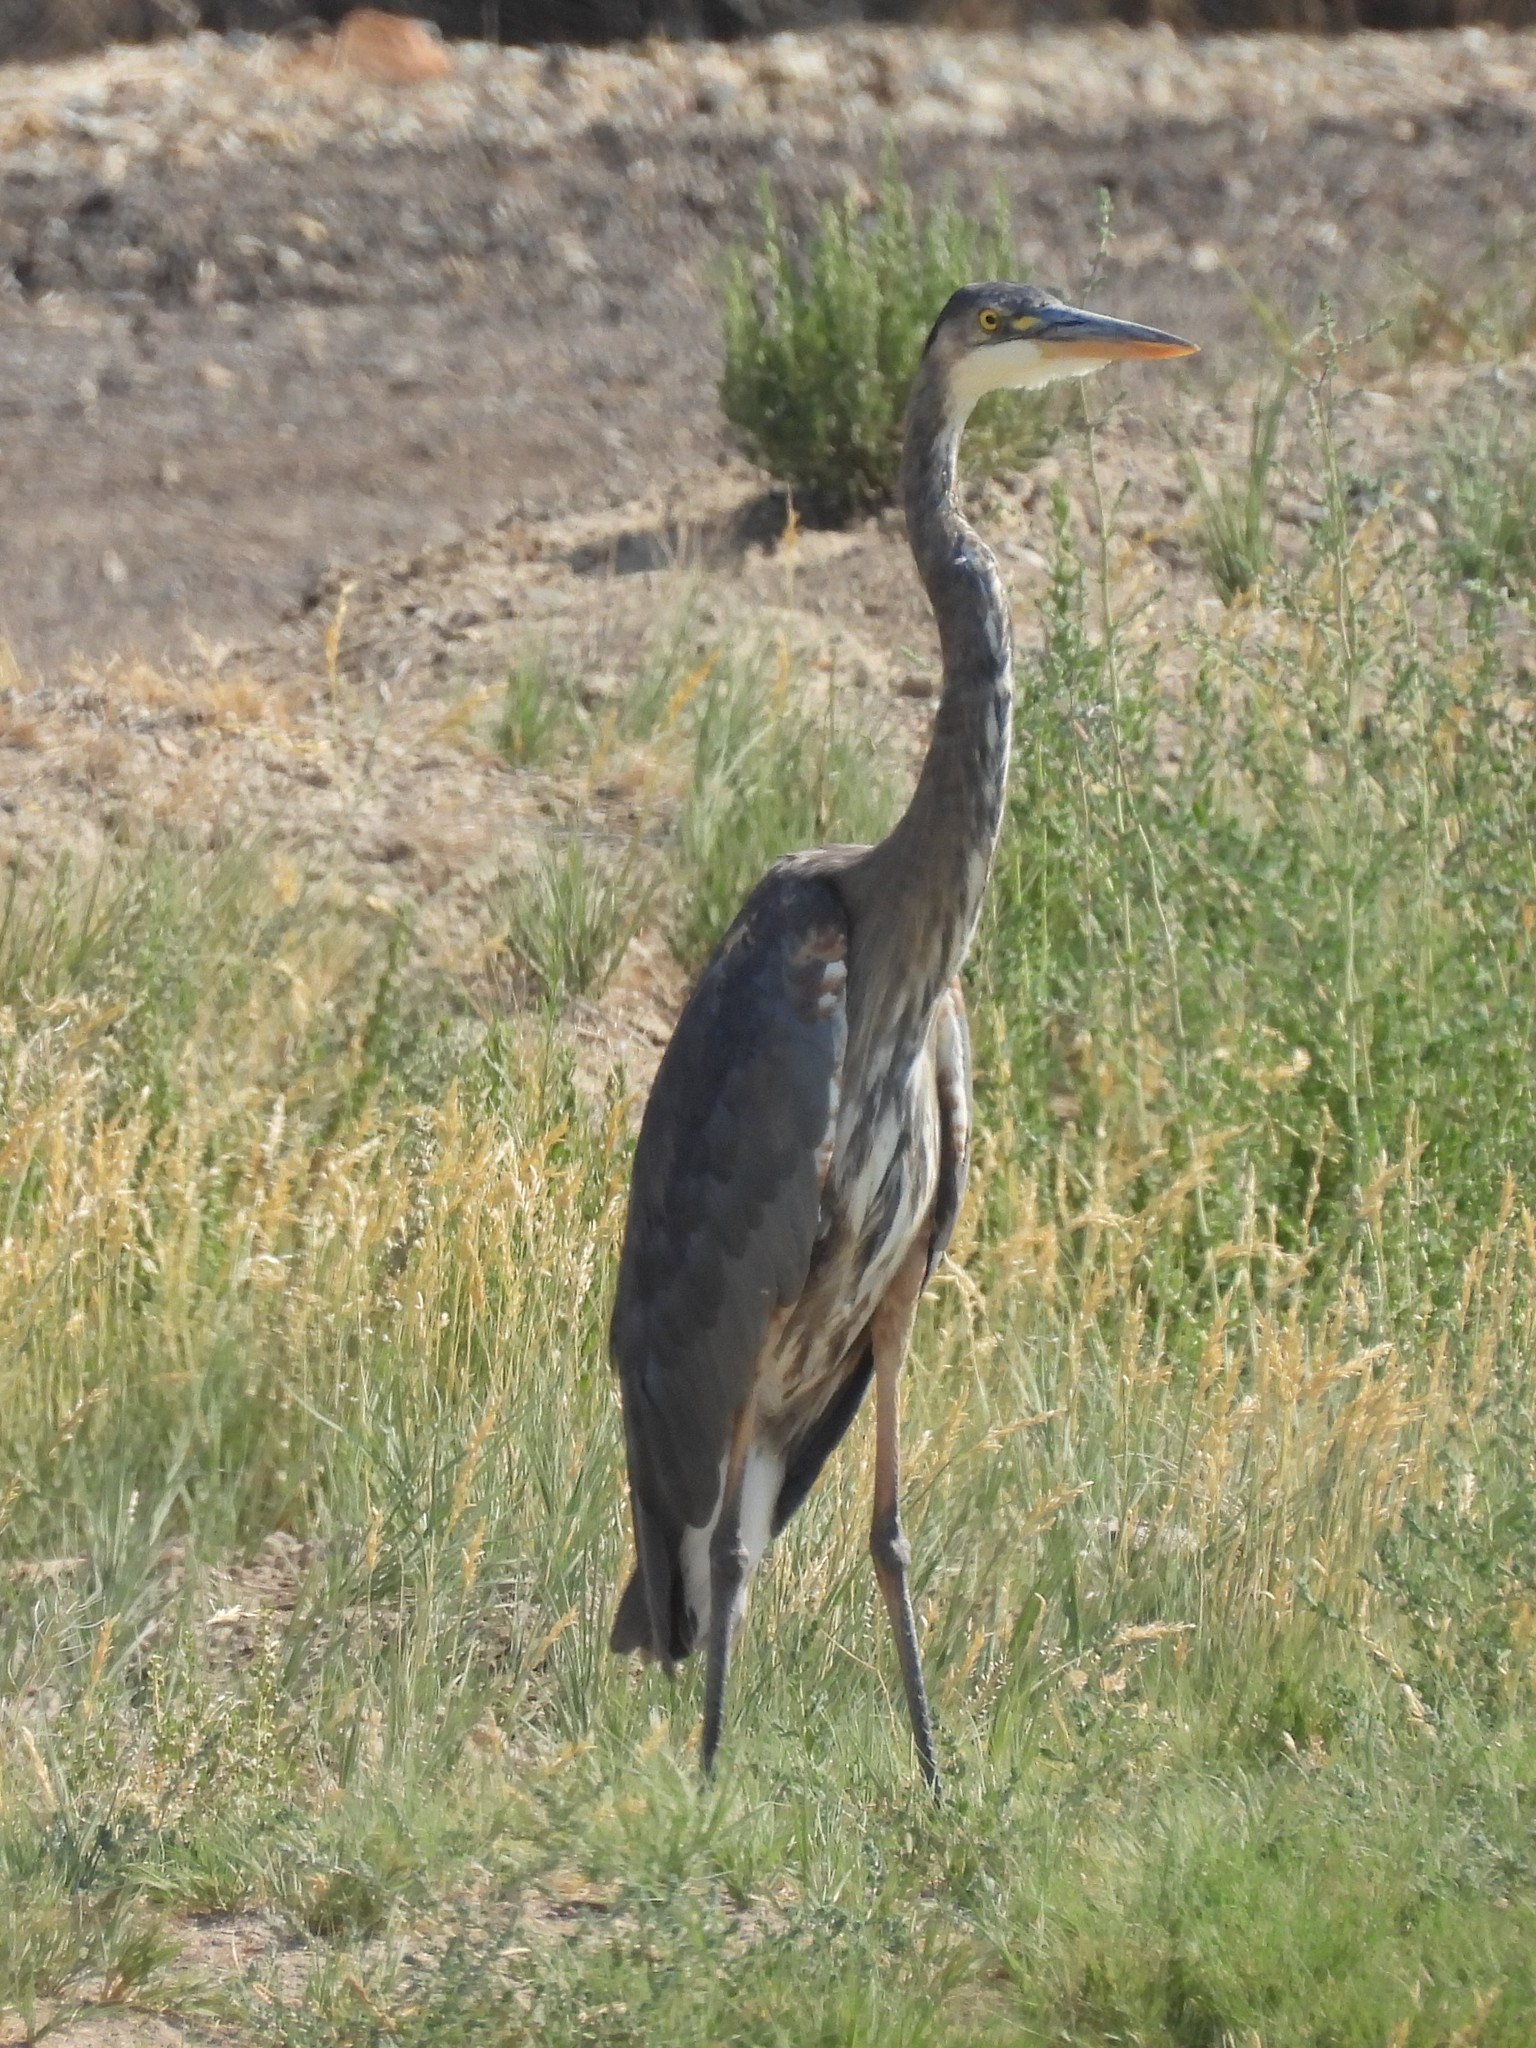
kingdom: Animalia
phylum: Chordata
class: Aves
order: Pelecaniformes
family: Ardeidae
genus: Ardea
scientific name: Ardea herodias
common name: Great blue heron
